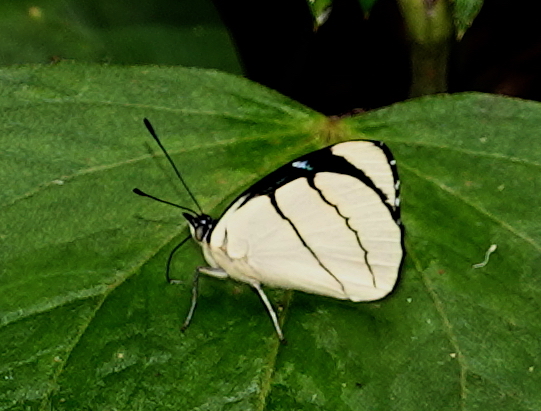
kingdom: Animalia
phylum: Arthropoda
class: Insecta
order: Lepidoptera
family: Nymphalidae
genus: Perisama
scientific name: Perisama oppelii
